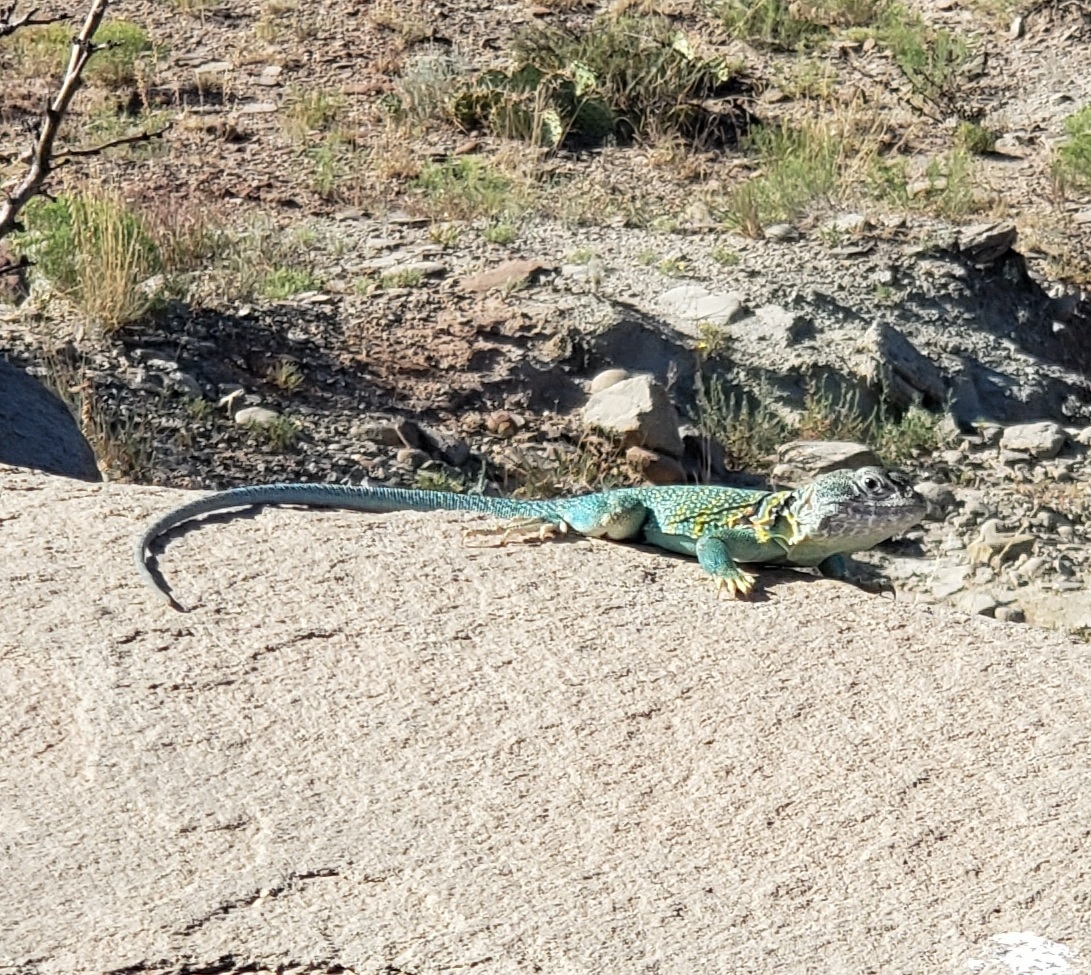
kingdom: Animalia
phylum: Chordata
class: Squamata
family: Crotaphytidae
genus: Crotaphytus
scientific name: Crotaphytus collaris
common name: Collared lizard
